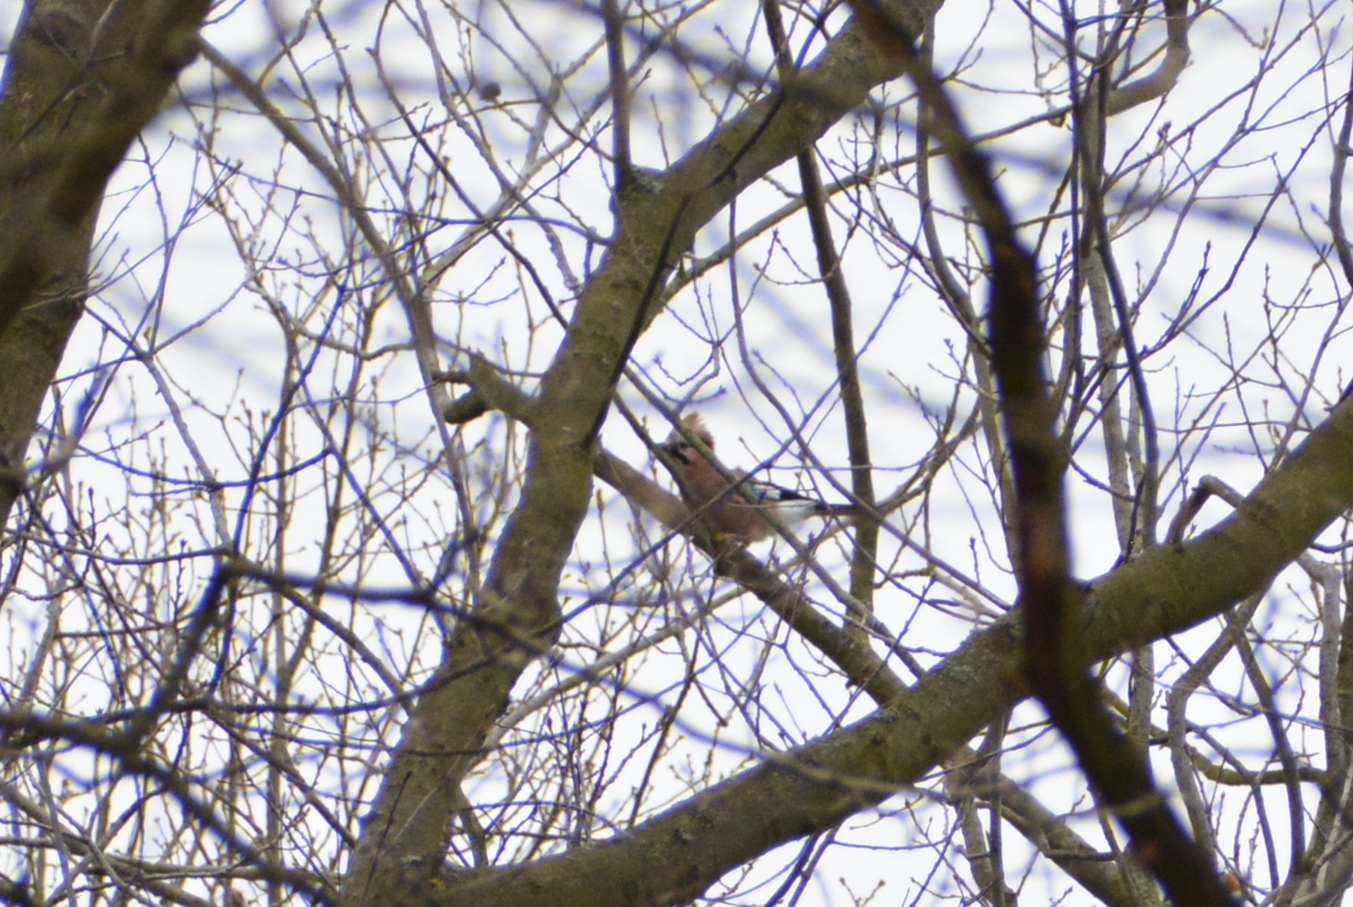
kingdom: Animalia
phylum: Chordata
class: Aves
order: Passeriformes
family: Corvidae
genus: Garrulus
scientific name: Garrulus glandarius
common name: Eurasian jay
